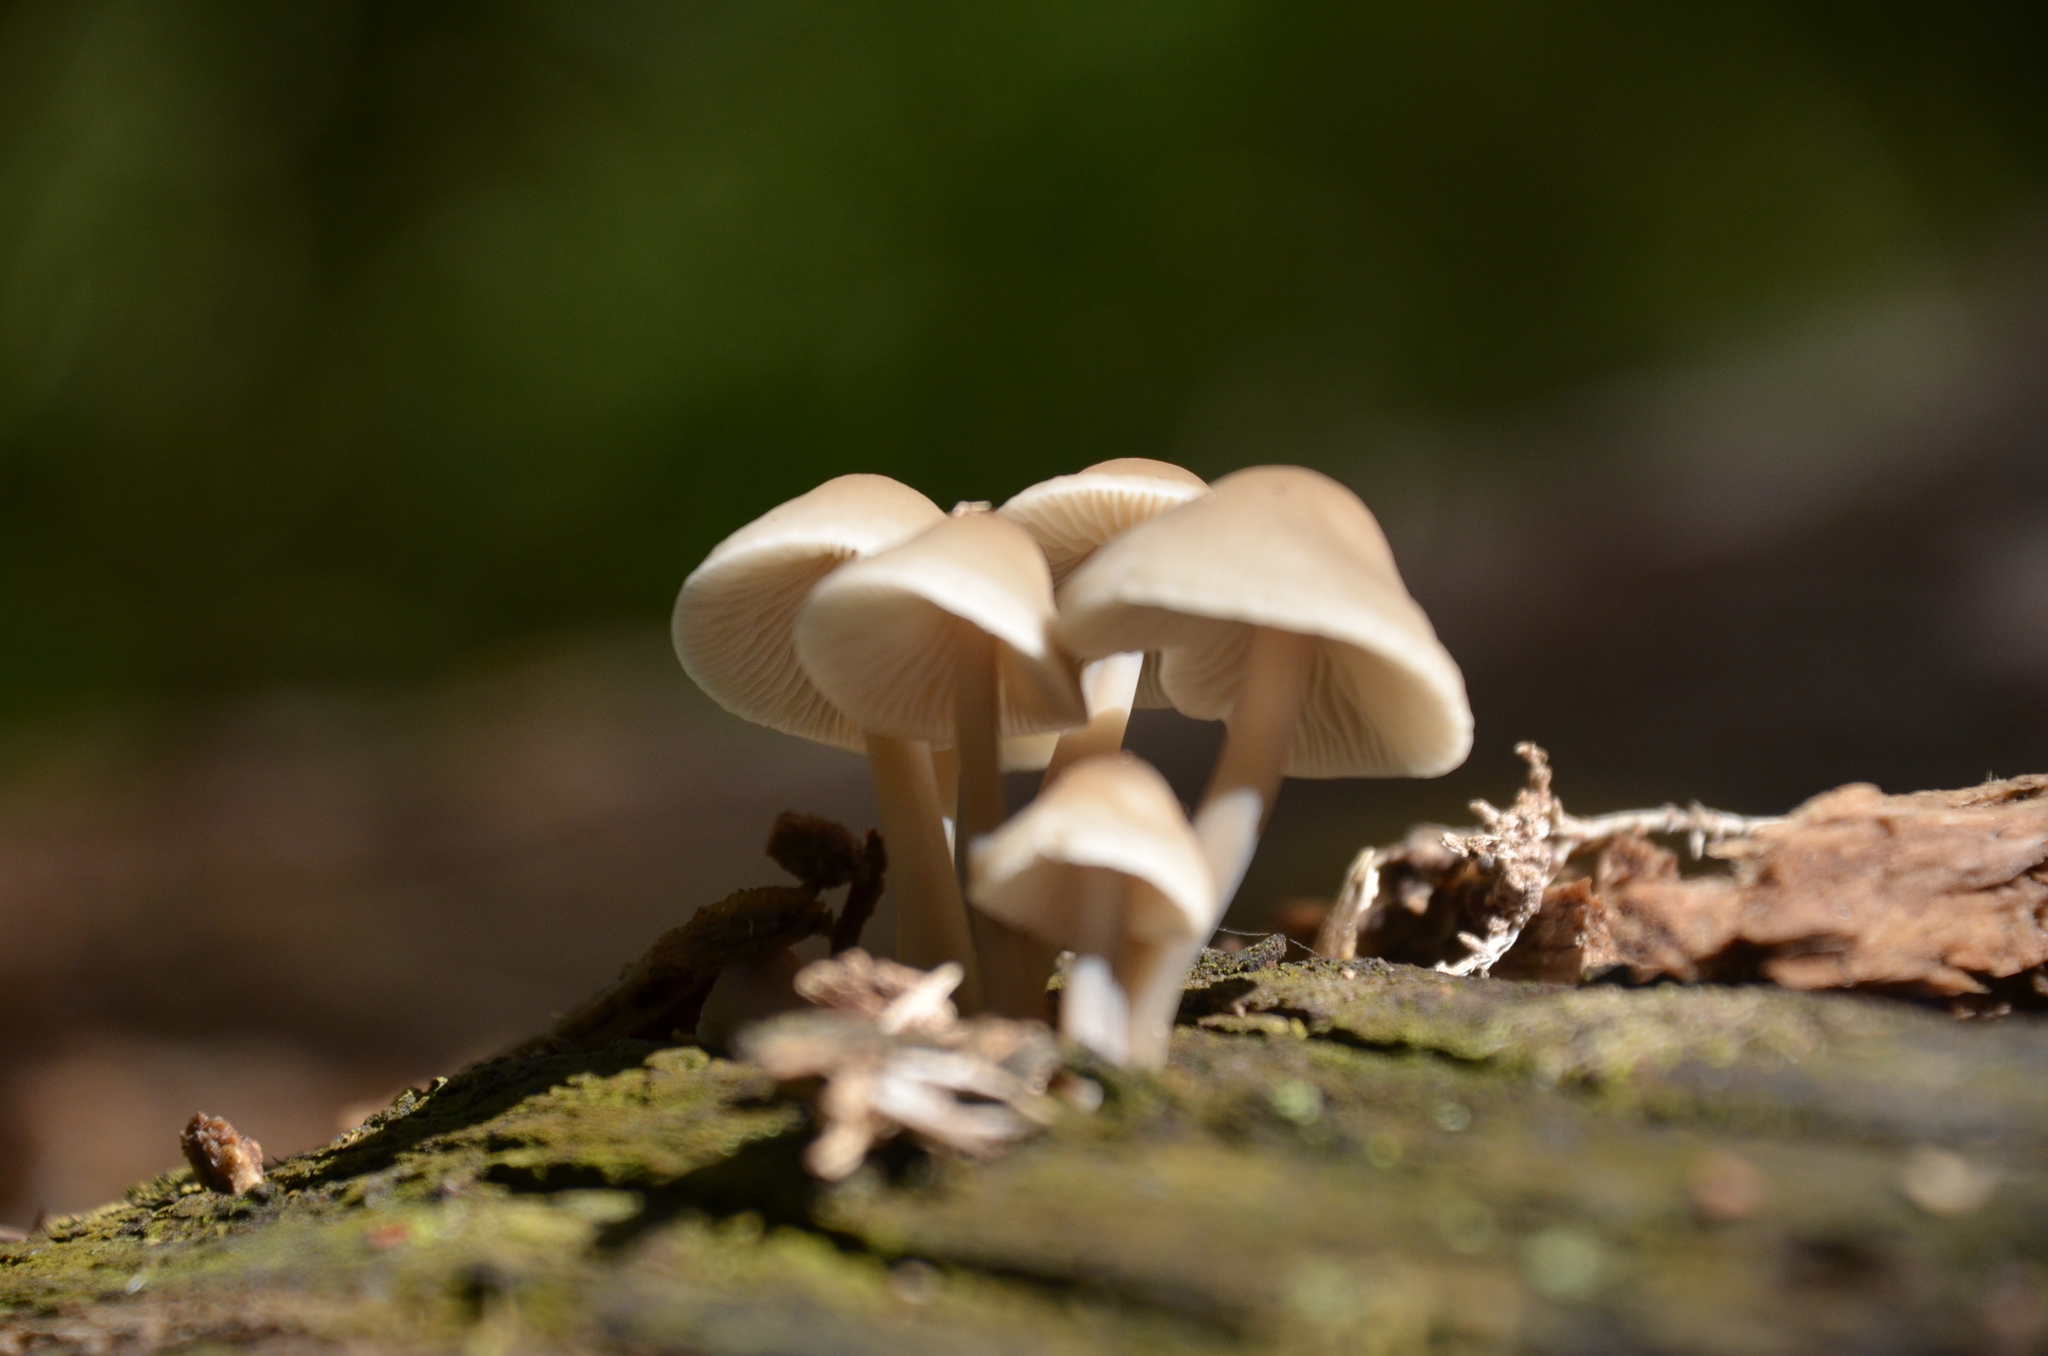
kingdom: Fungi
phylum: Basidiomycota
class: Agaricomycetes
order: Agaricales
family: Mycenaceae
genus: Mycena
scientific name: Mycena galericulata
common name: Bonnet mycena
